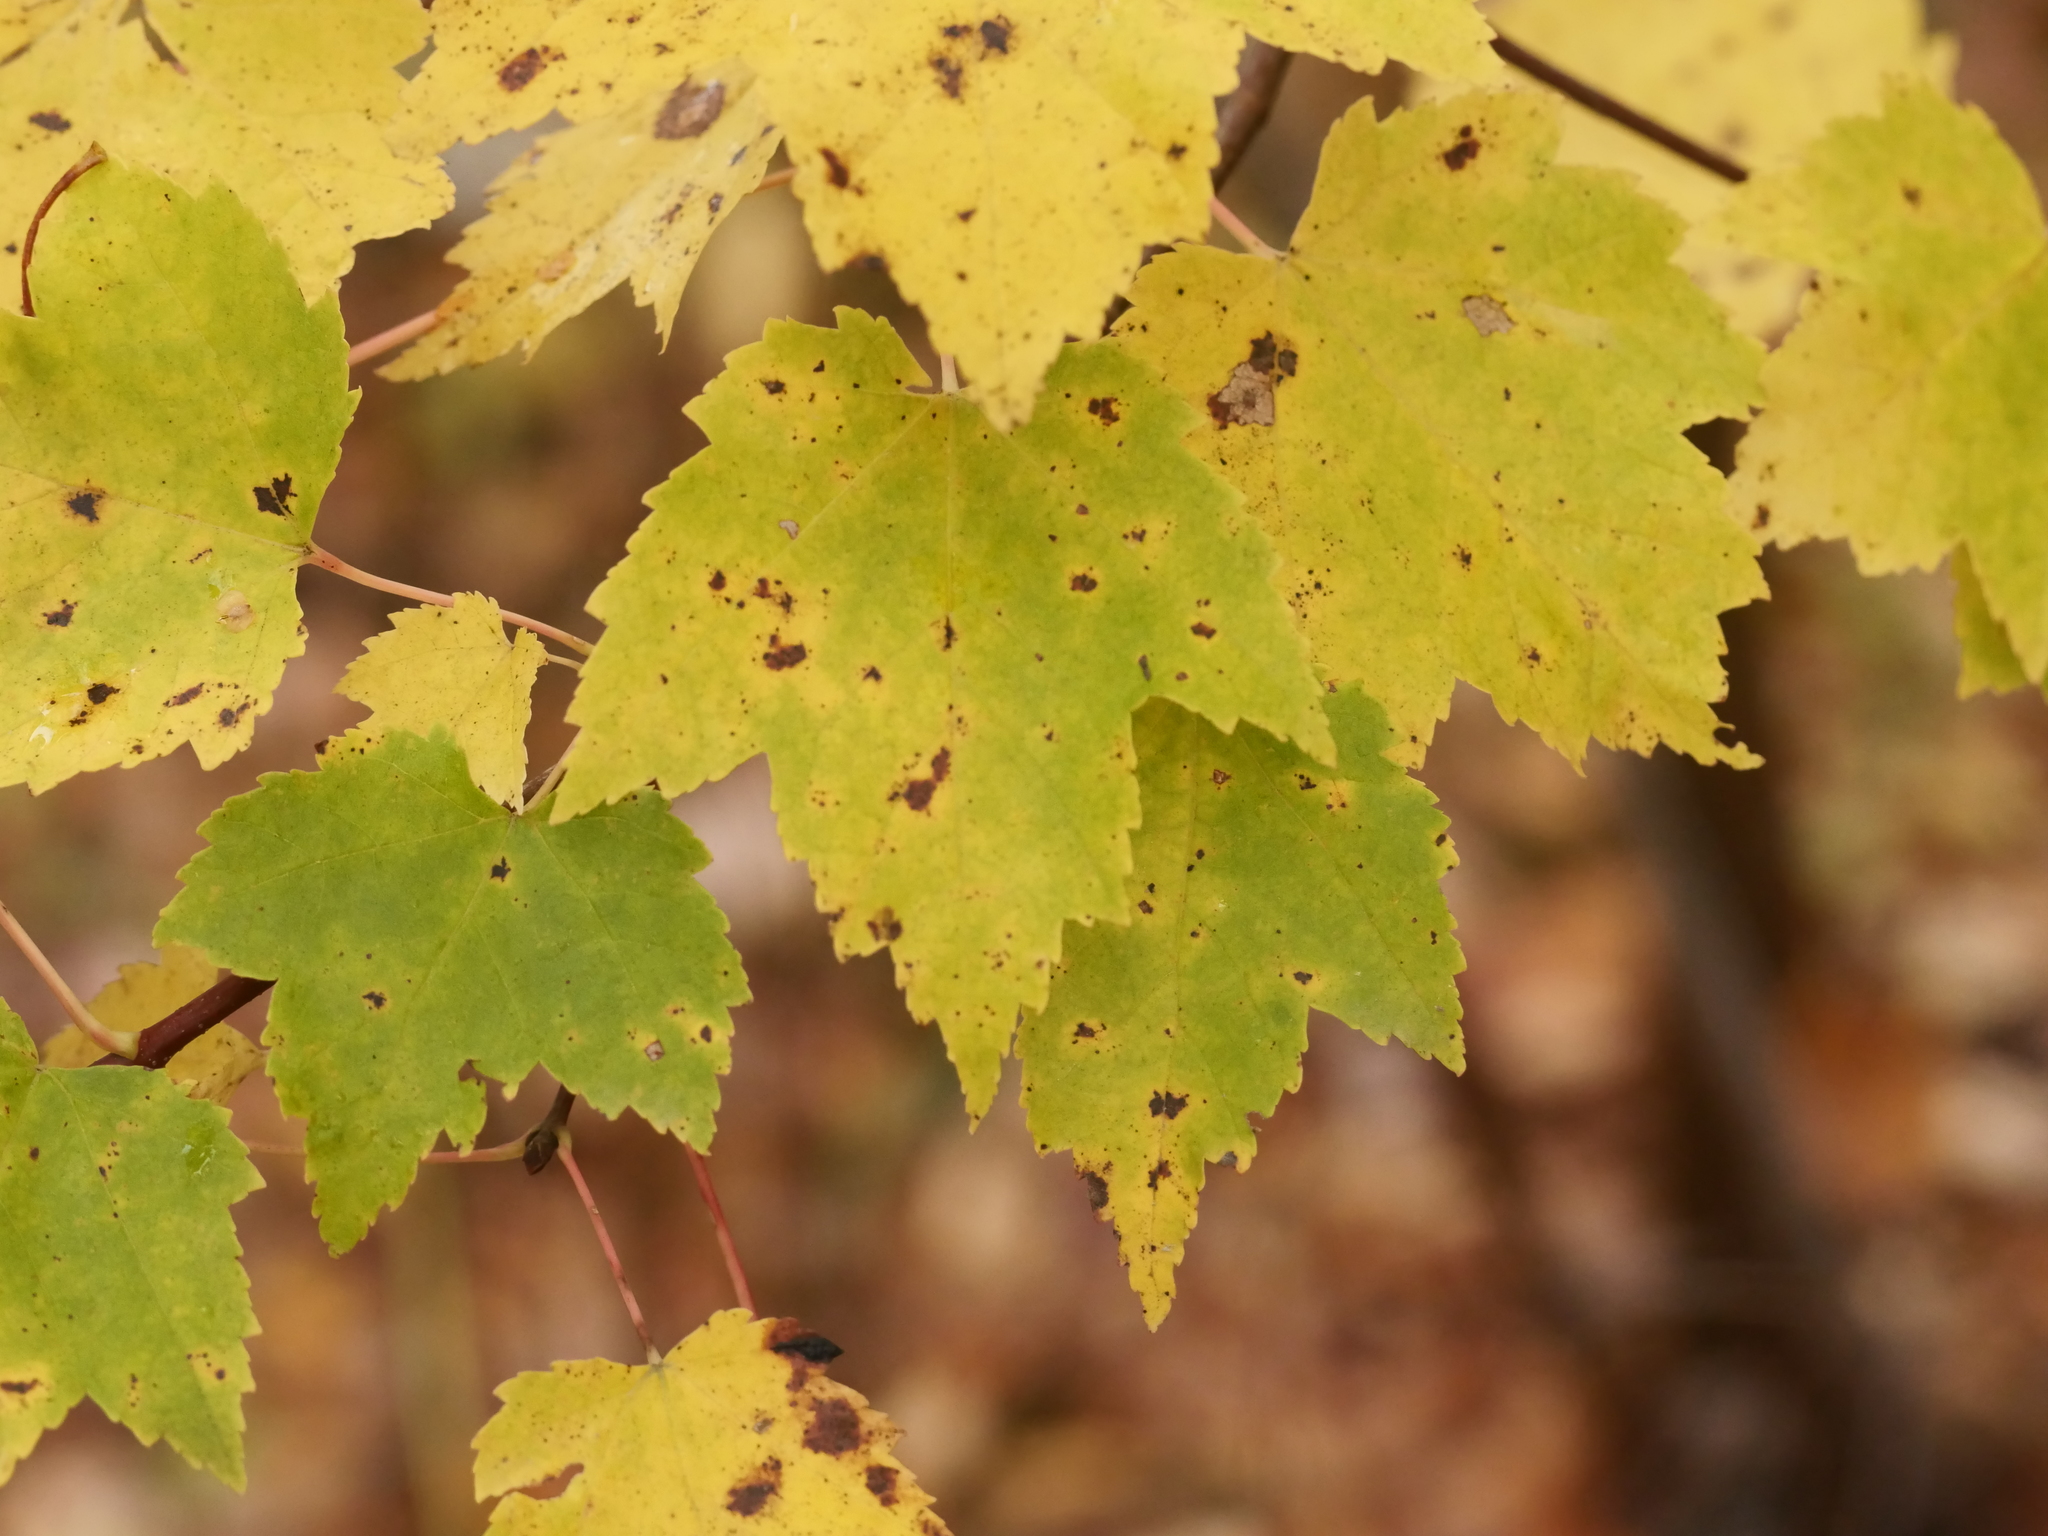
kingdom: Plantae
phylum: Tracheophyta
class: Magnoliopsida
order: Sapindales
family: Sapindaceae
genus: Acer
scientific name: Acer rubrum
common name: Red maple
